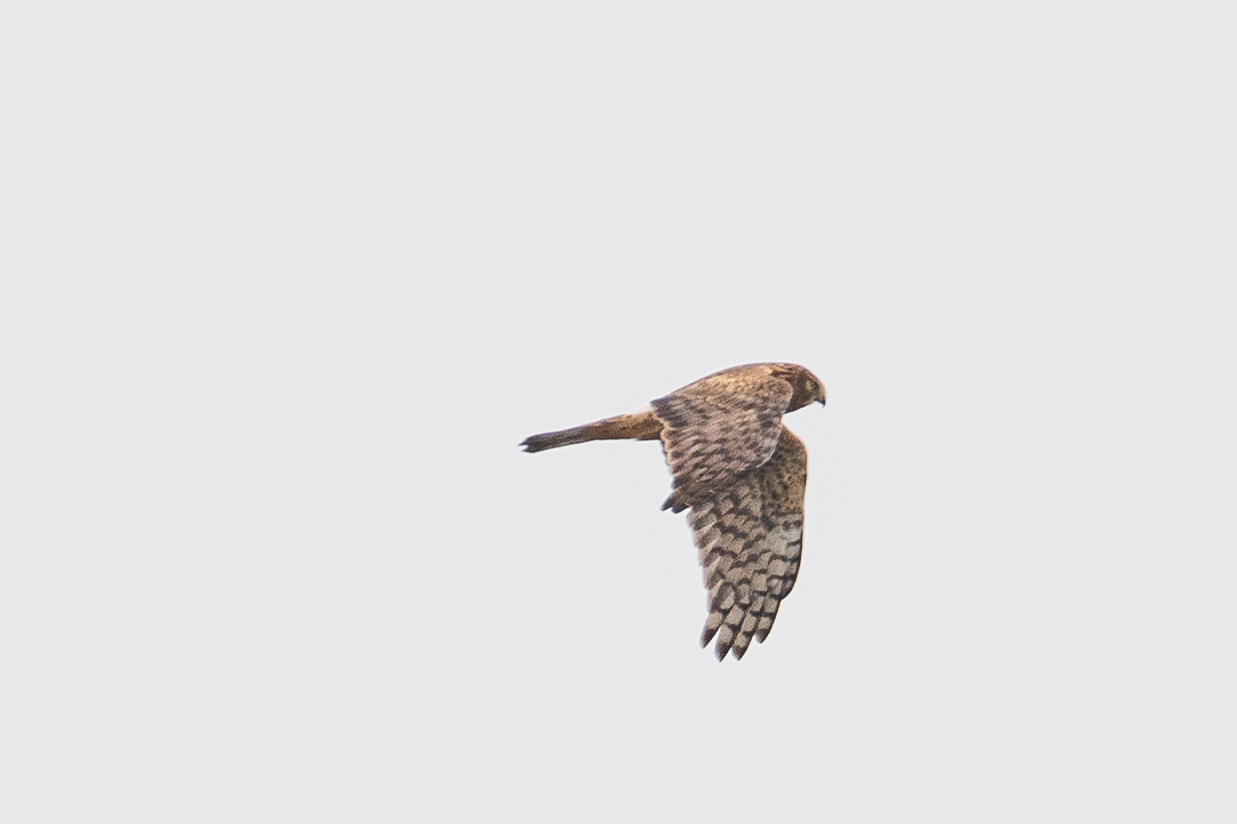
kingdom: Animalia
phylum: Chordata
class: Aves
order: Accipitriformes
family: Accipitridae
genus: Circus
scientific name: Circus cyaneus
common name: Hen harrier
